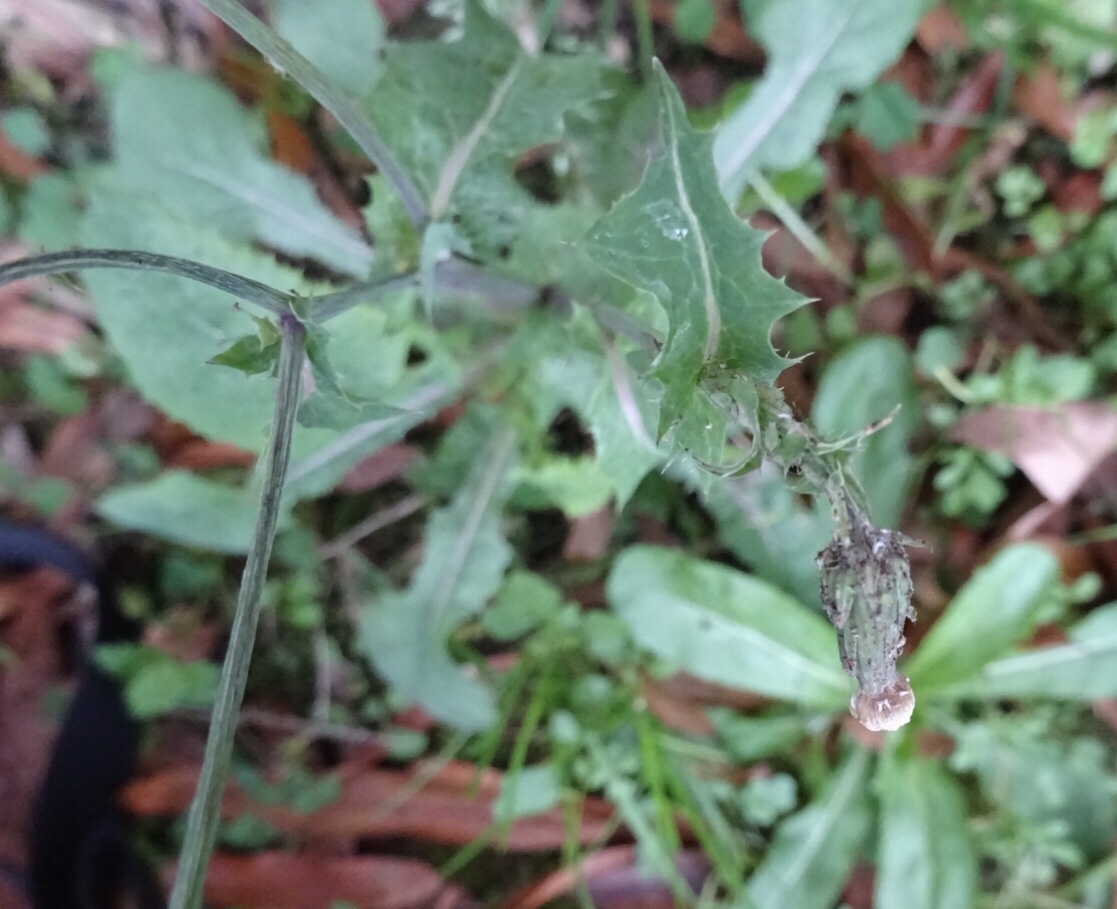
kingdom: Plantae
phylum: Tracheophyta
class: Magnoliopsida
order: Asterales
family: Asteraceae
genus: Sonchus
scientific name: Sonchus oleraceus
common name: Common sowthistle
